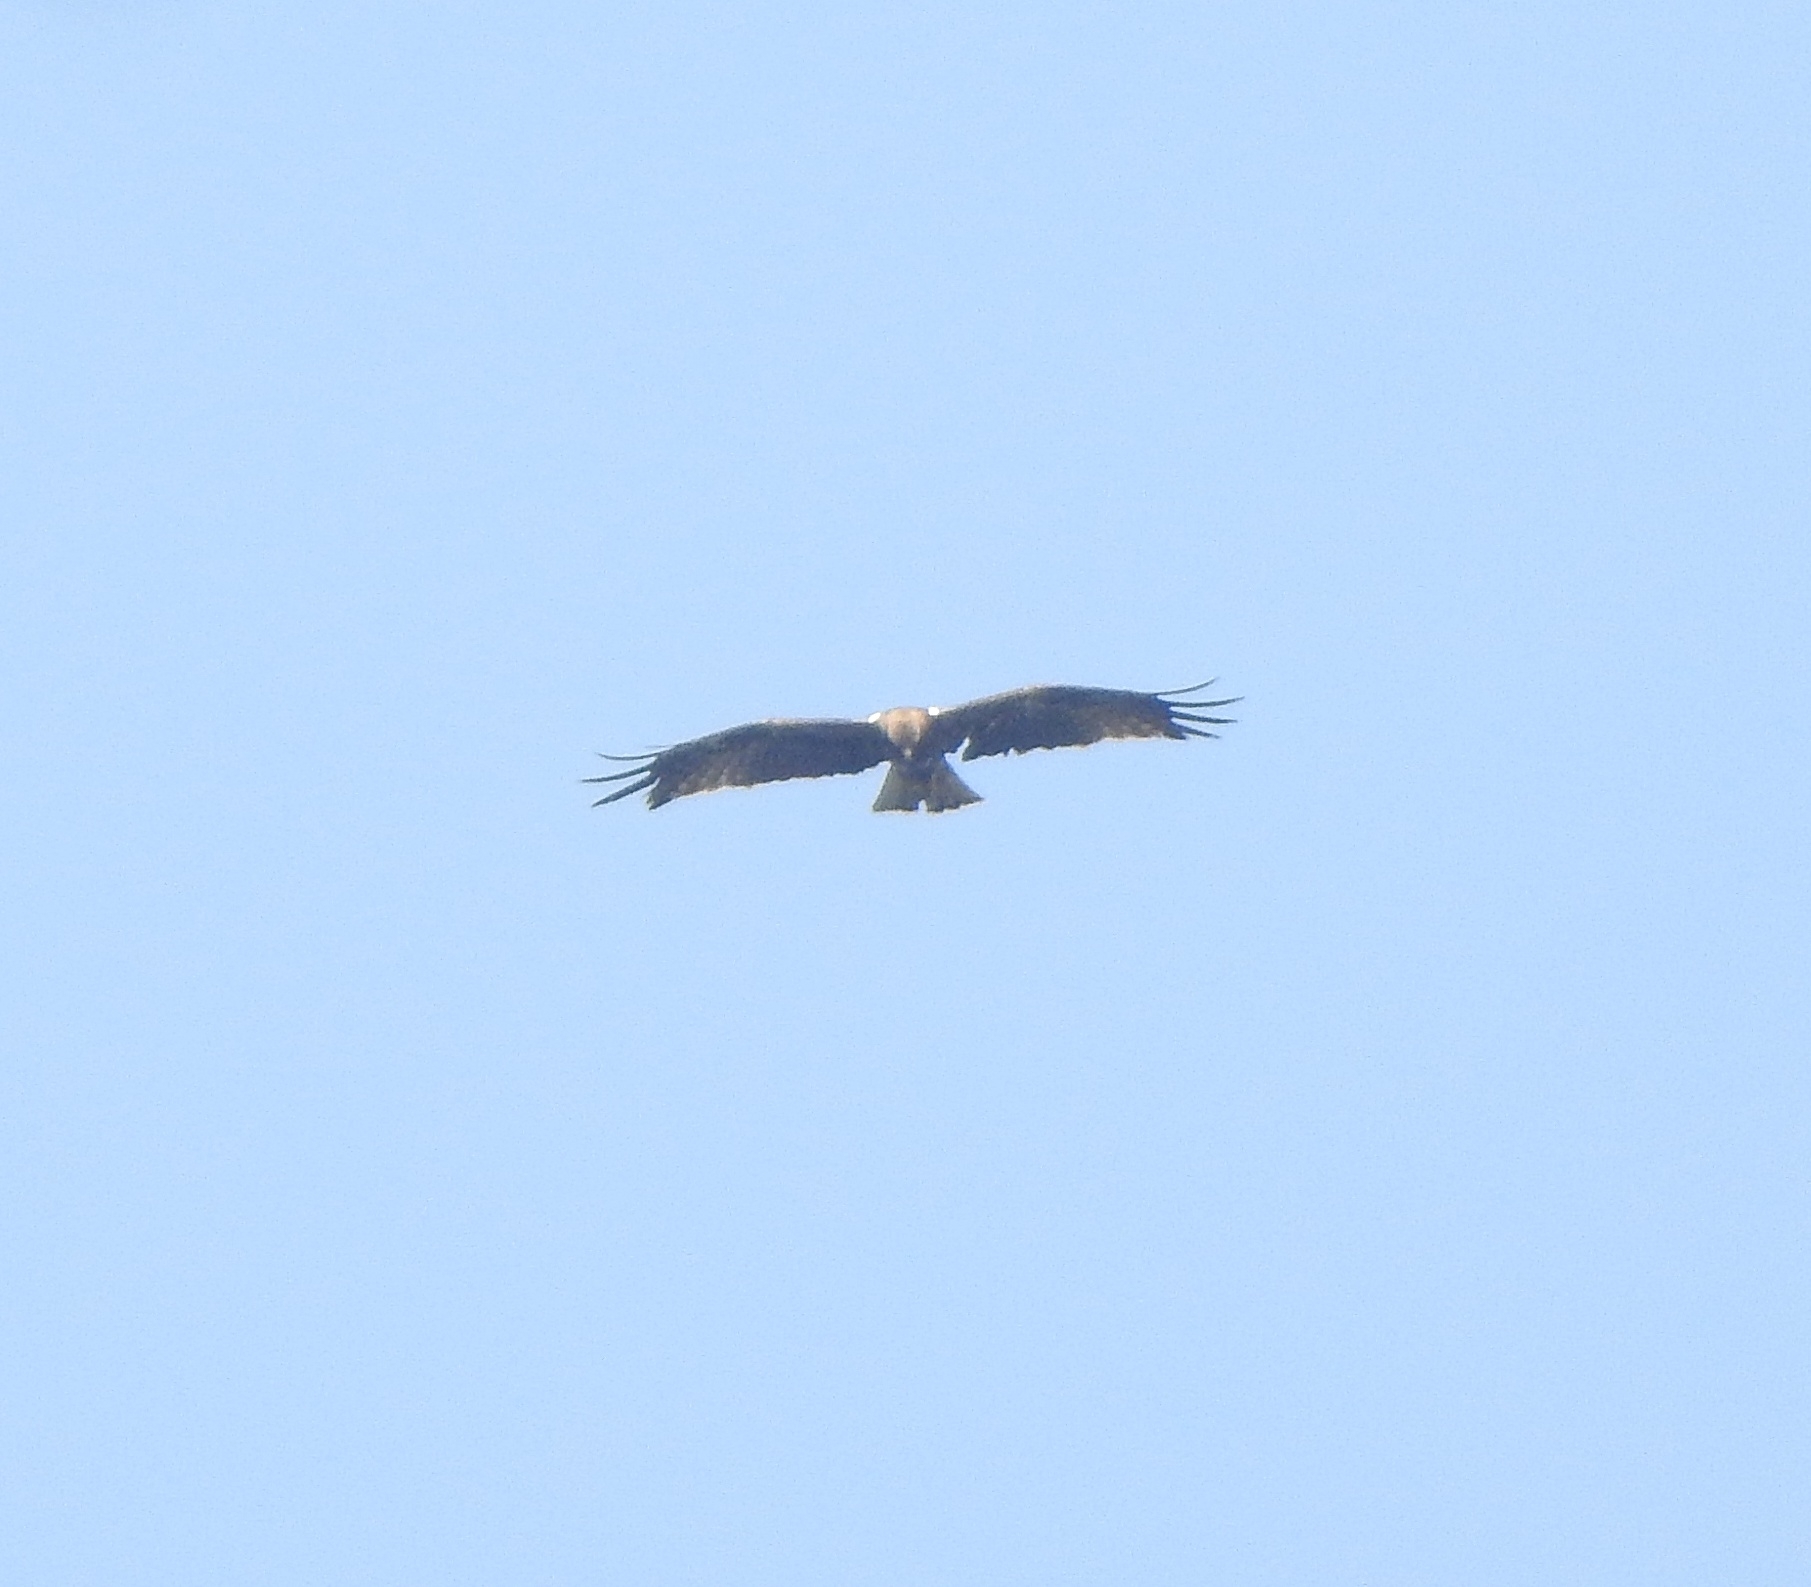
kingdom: Animalia
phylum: Chordata
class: Aves
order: Accipitriformes
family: Accipitridae
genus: Hieraaetus
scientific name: Hieraaetus pennatus
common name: Booted eagle
